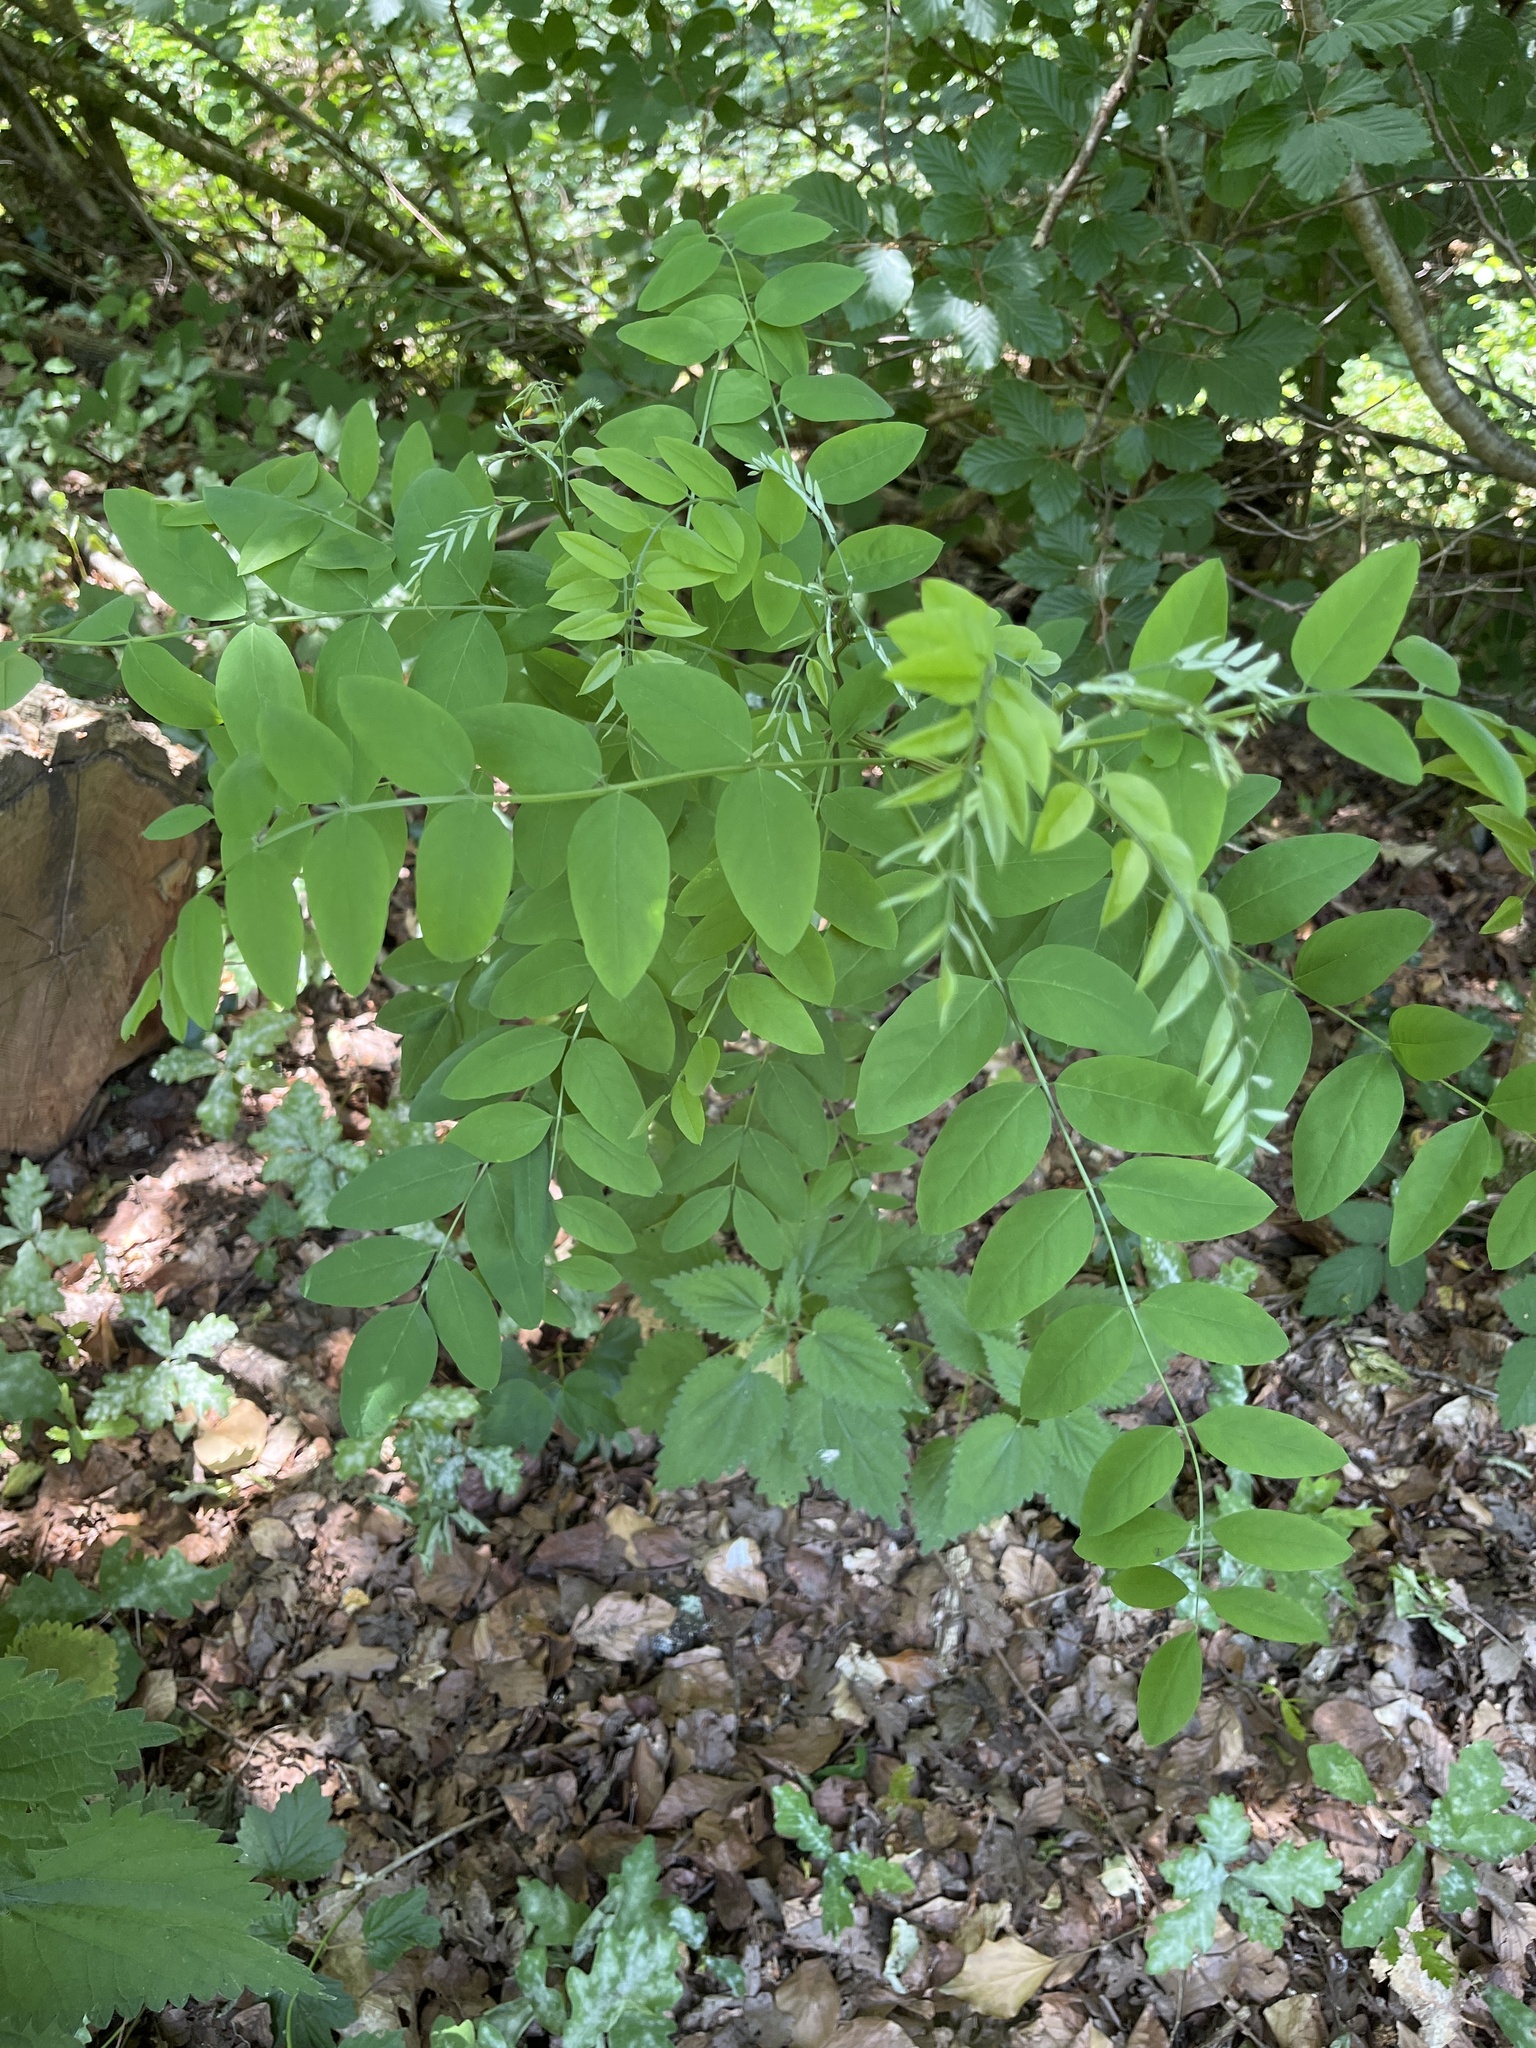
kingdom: Plantae
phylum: Tracheophyta
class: Magnoliopsida
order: Fabales
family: Fabaceae
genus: Robinia
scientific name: Robinia pseudoacacia
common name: Black locust
